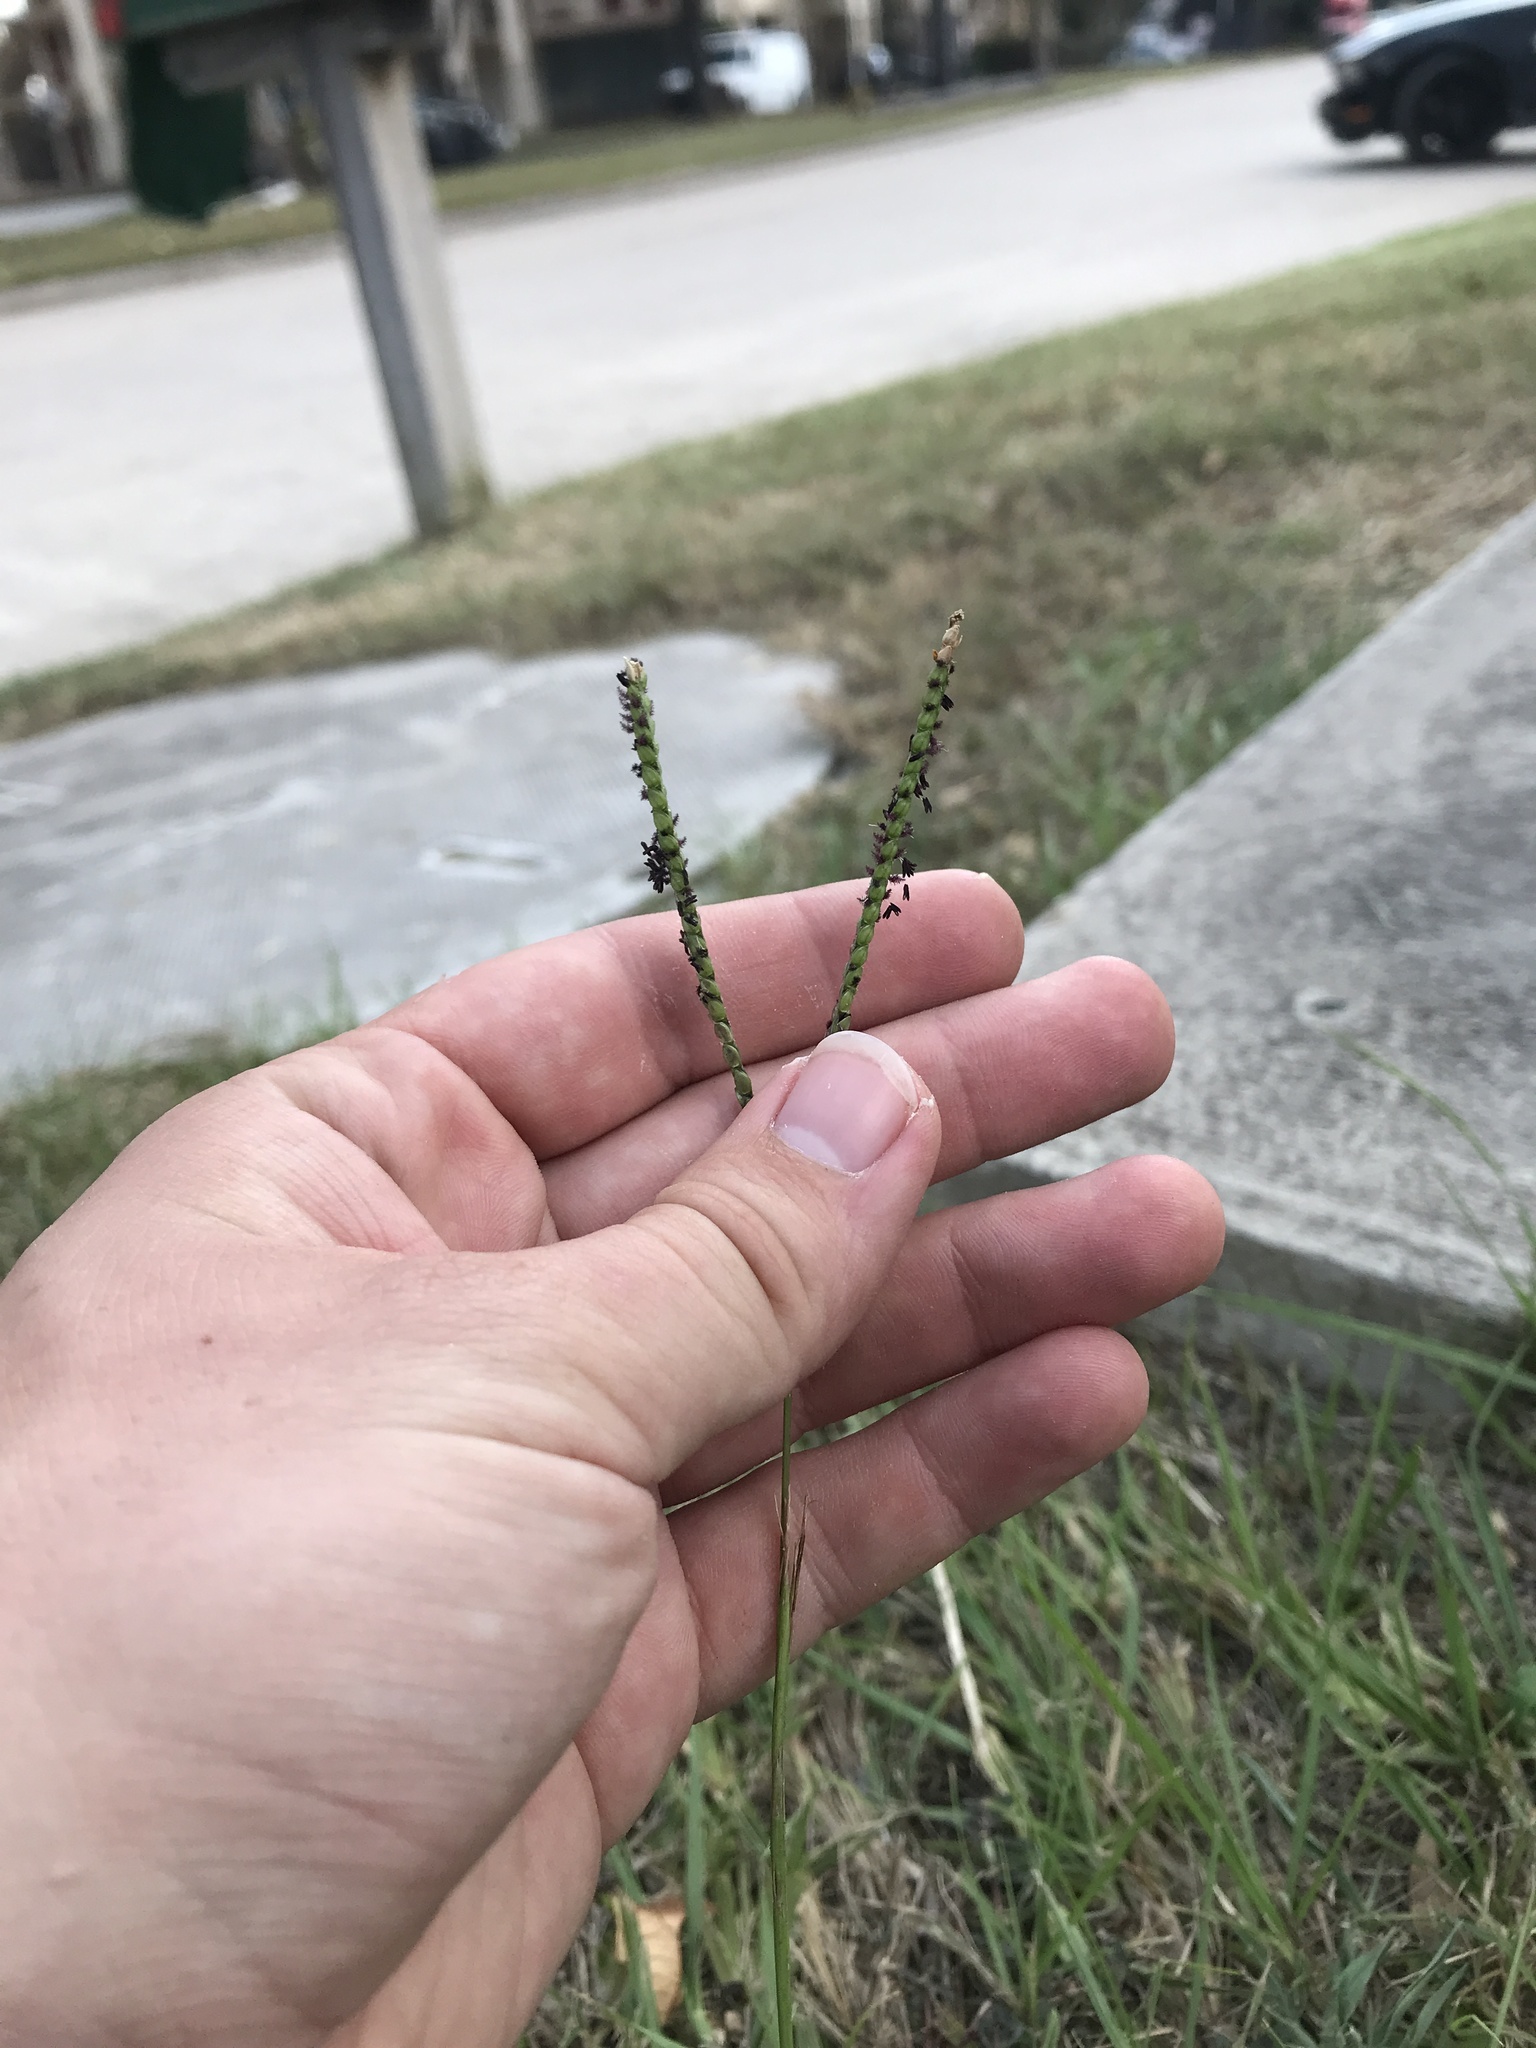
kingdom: Plantae
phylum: Tracheophyta
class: Liliopsida
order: Poales
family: Poaceae
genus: Paspalum
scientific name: Paspalum notatum
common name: Bahiagrass
